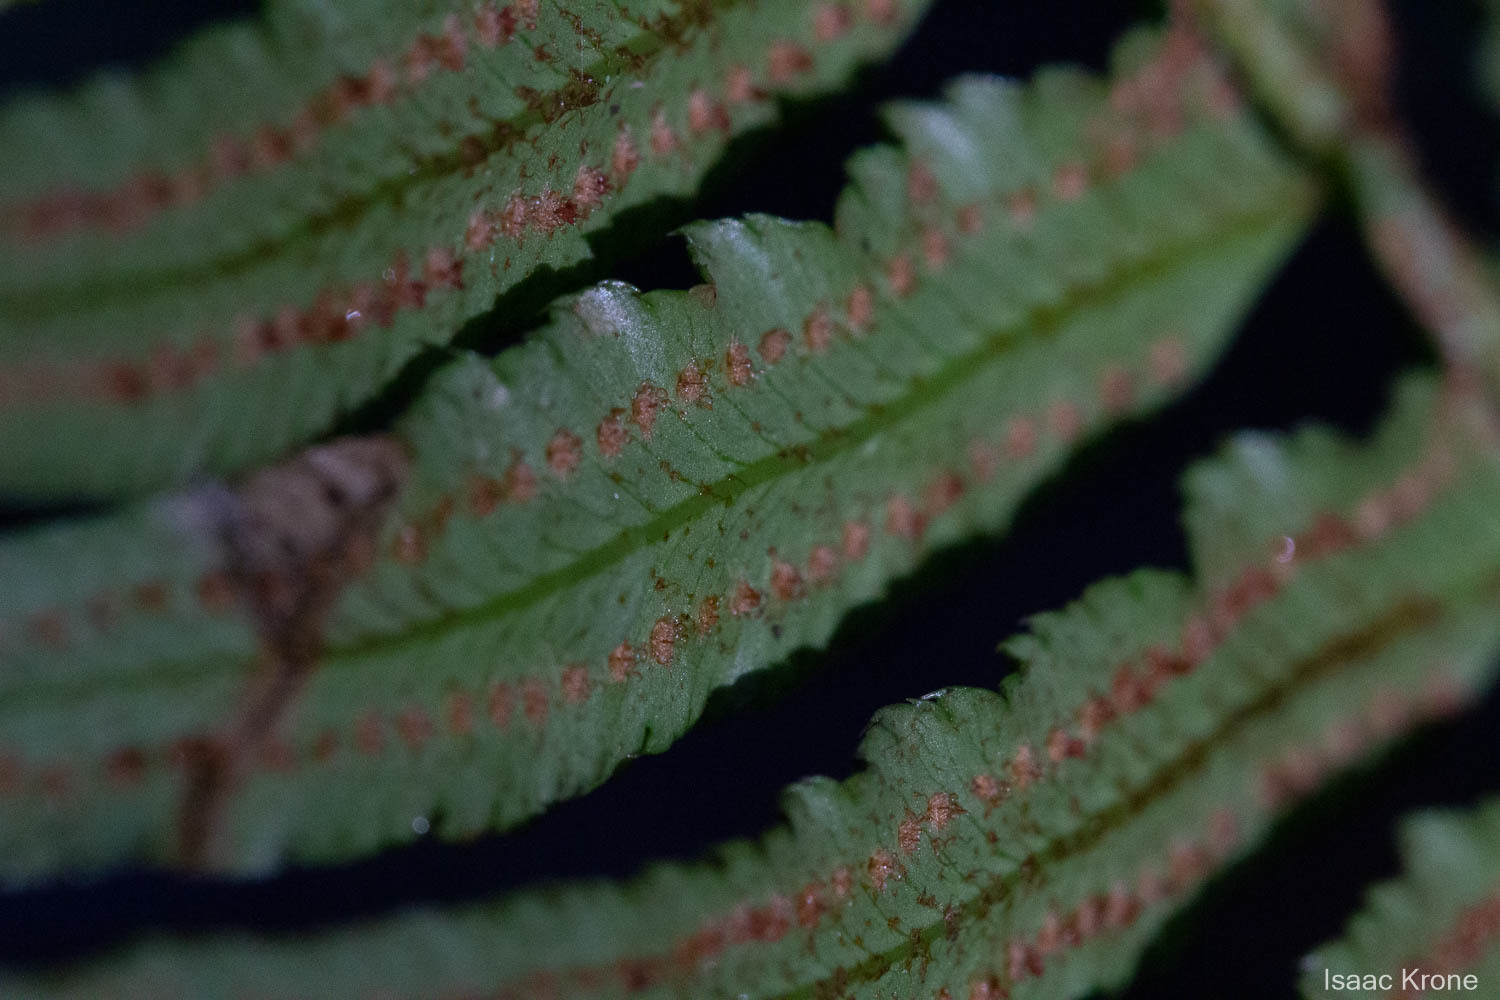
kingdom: Plantae
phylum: Tracheophyta
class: Polypodiopsida
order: Polypodiales
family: Dryopteridaceae
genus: Polystichum
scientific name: Polystichum munitum
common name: Western sword-fern
